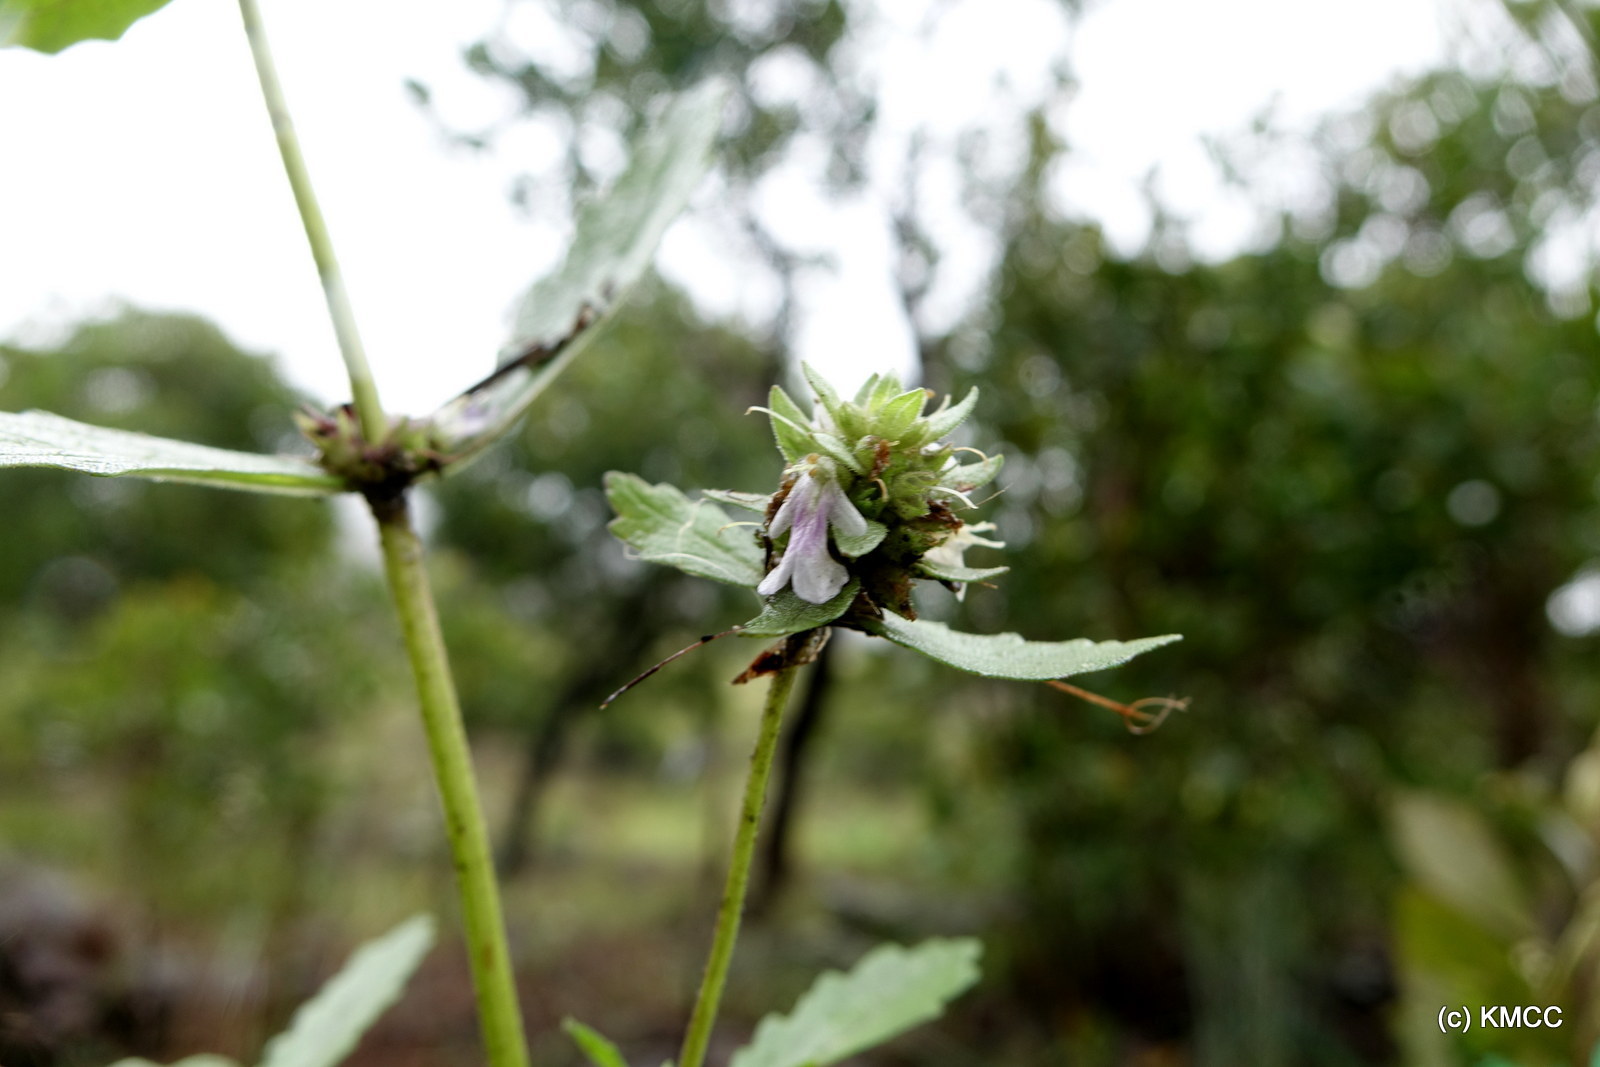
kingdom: Plantae
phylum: Tracheophyta
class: Magnoliopsida
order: Lamiales
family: Lamiaceae
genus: Ajuga
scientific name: Ajuga robusta
